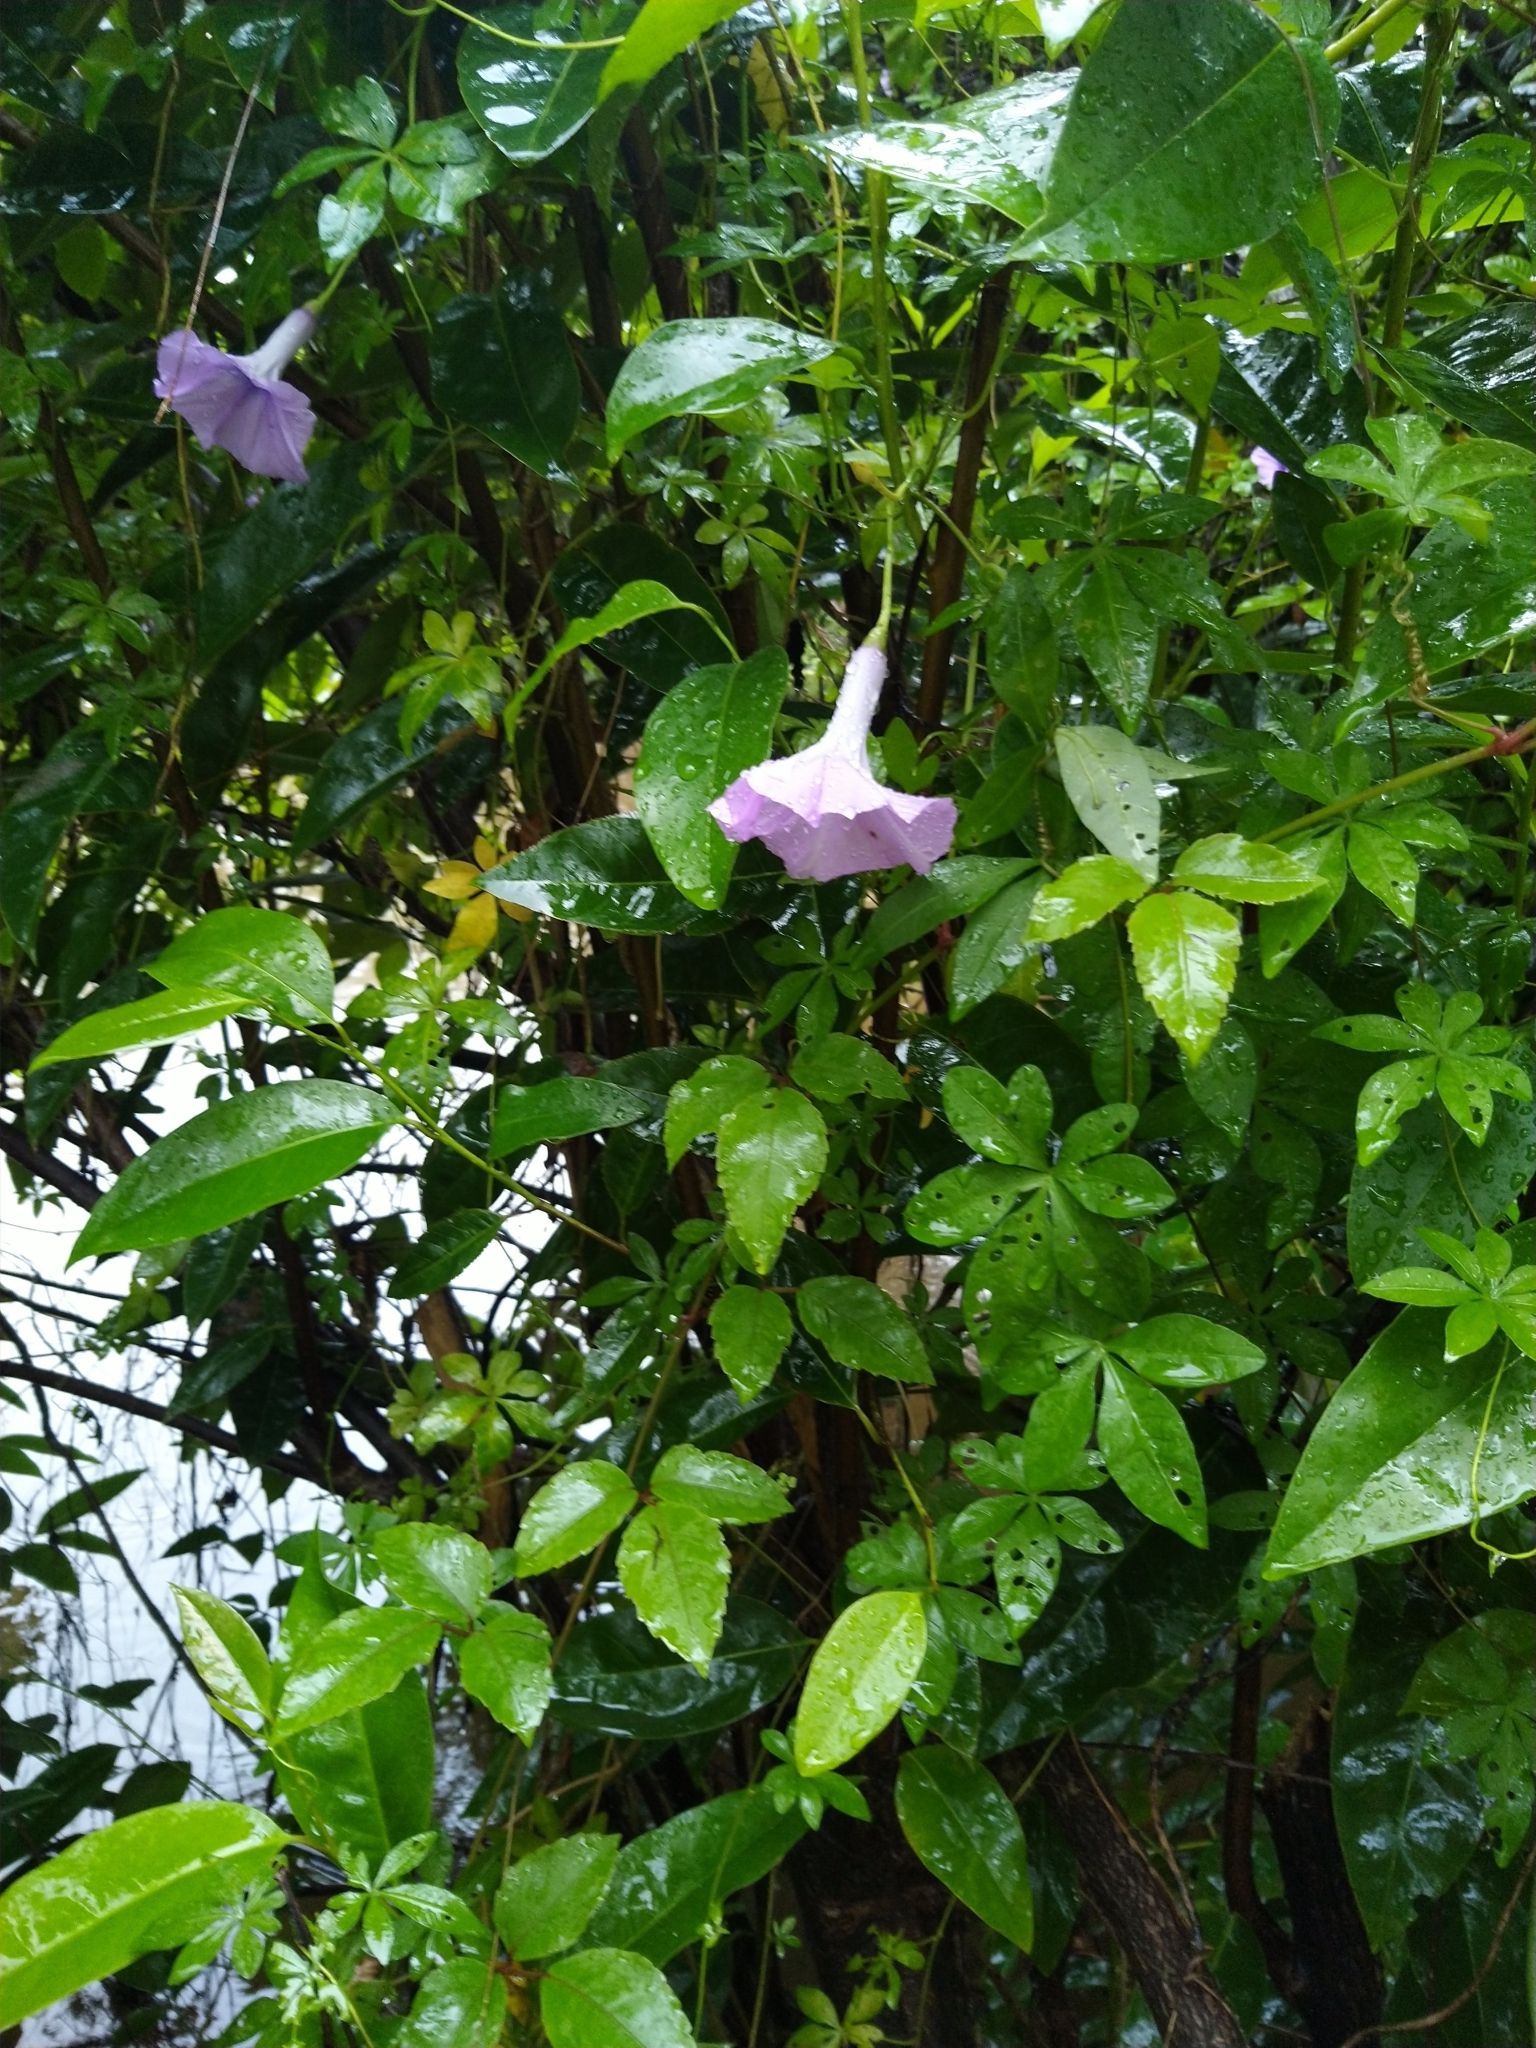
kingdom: Plantae
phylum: Tracheophyta
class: Magnoliopsida
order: Solanales
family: Convolvulaceae
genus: Ipomoea
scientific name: Ipomoea cairica
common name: Mile a minute vine
